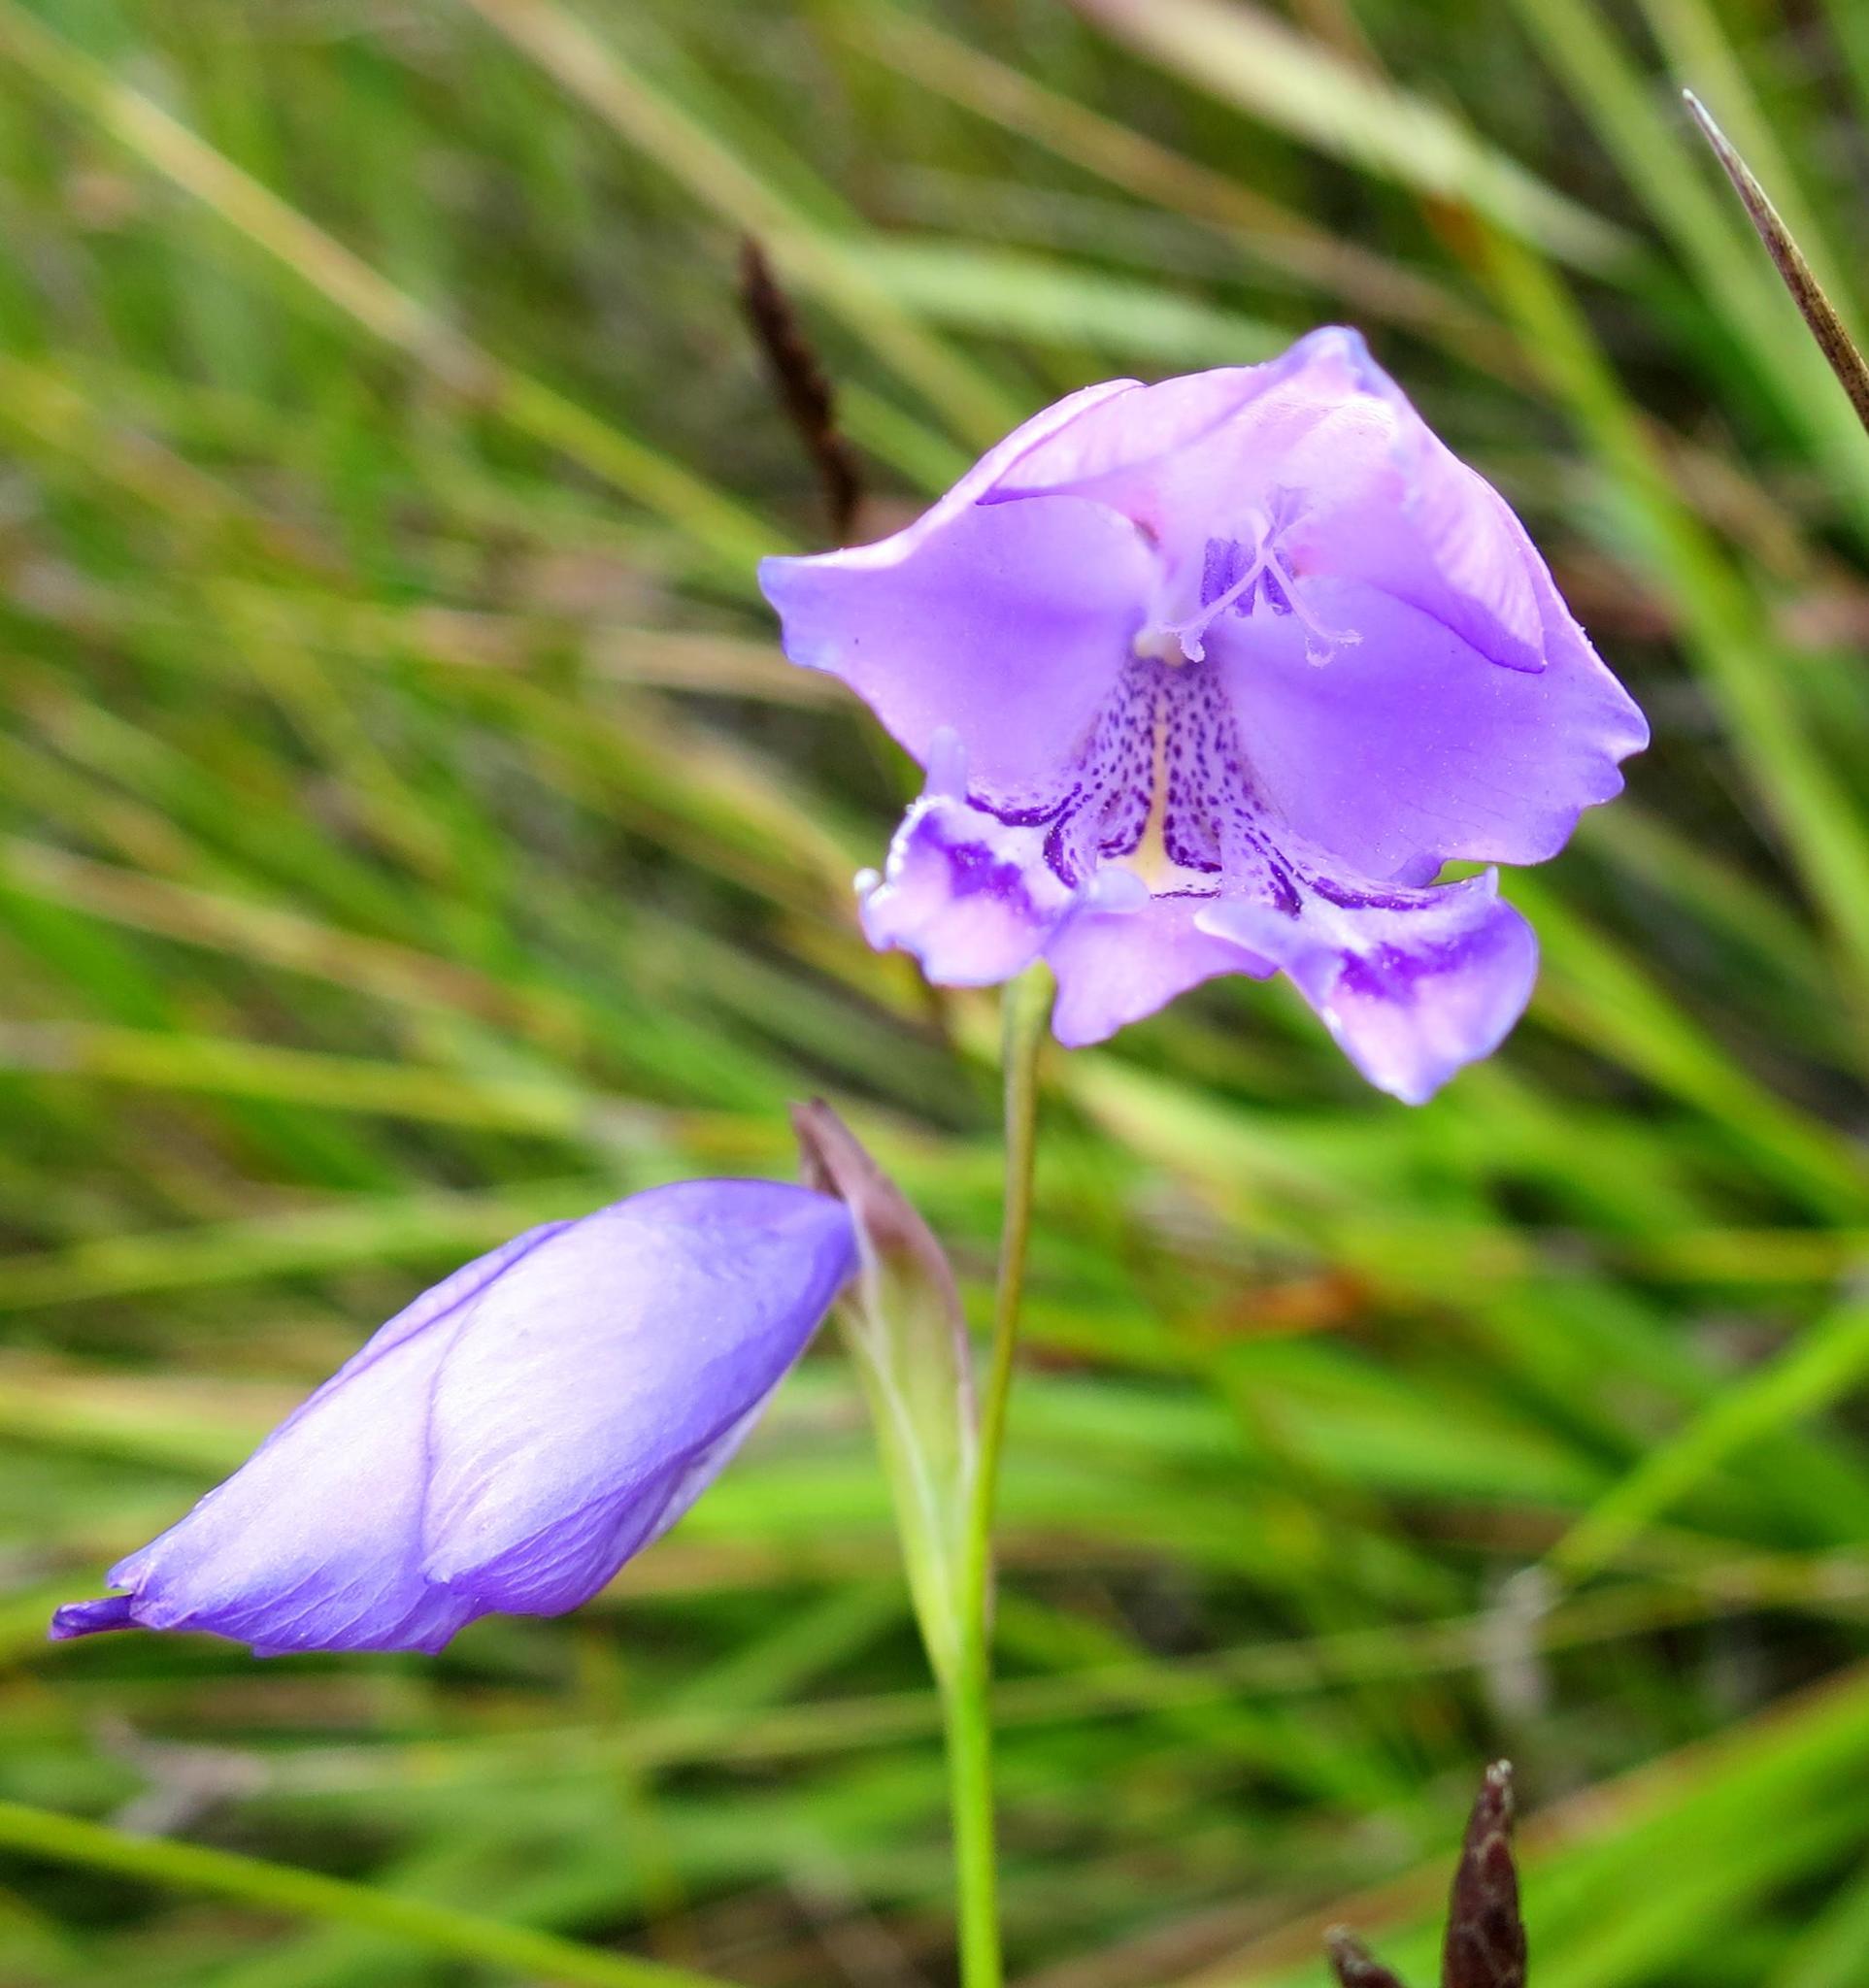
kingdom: Plantae
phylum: Tracheophyta
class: Liliopsida
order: Asparagales
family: Iridaceae
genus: Gladiolus
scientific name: Gladiolus rogersii
